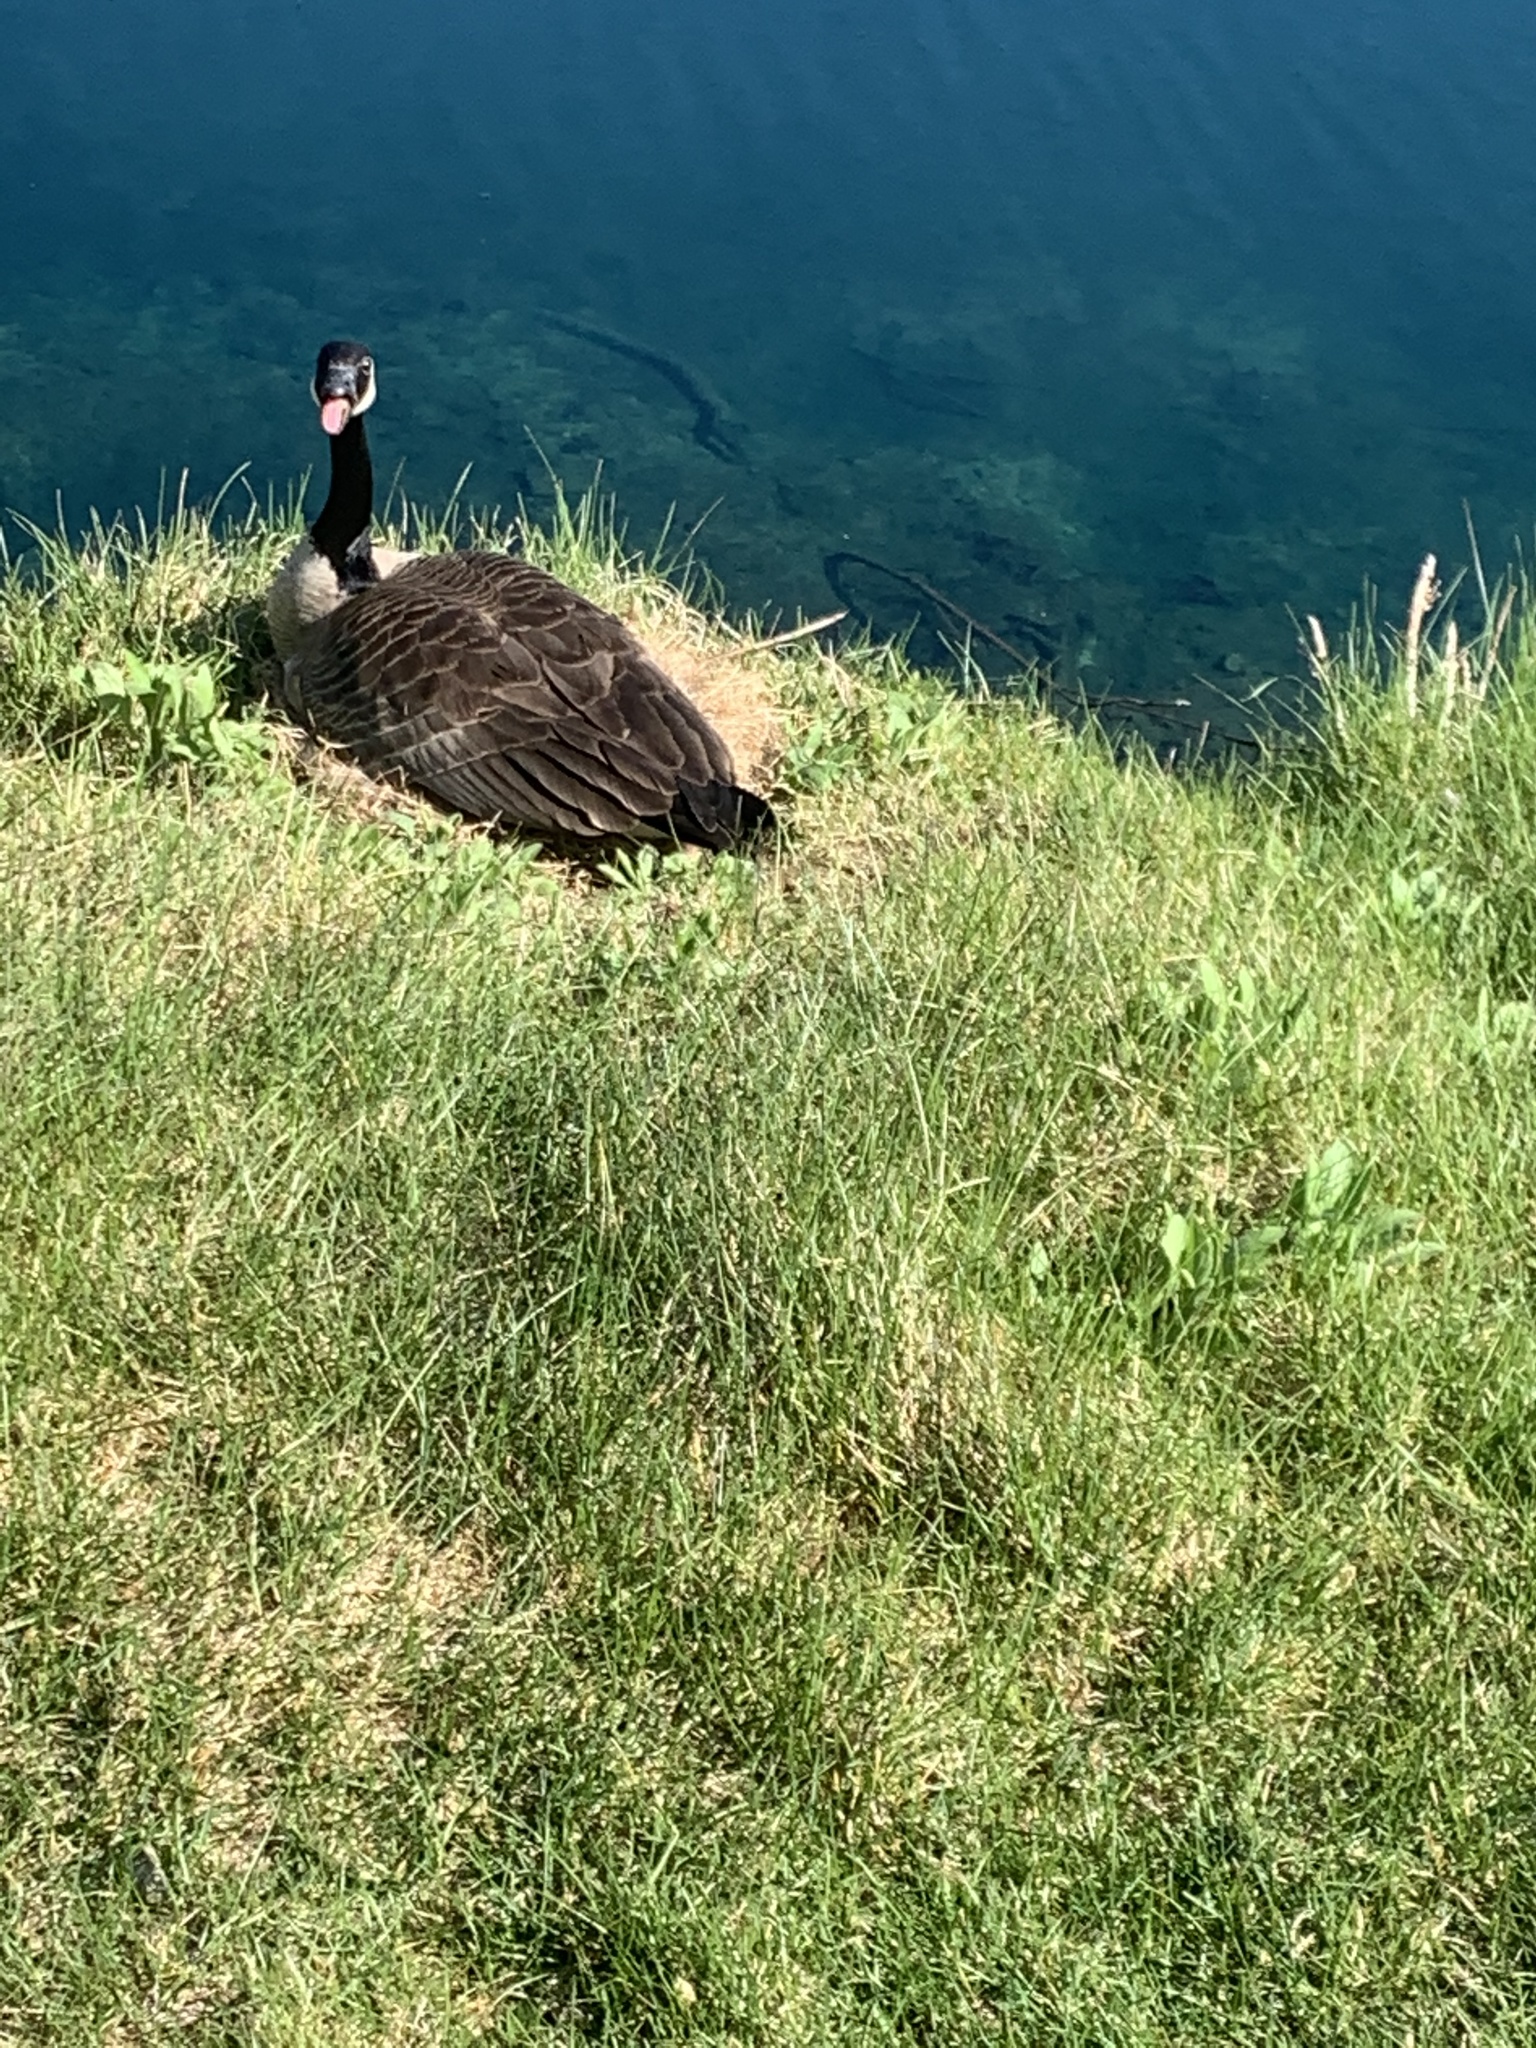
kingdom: Animalia
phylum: Chordata
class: Aves
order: Anseriformes
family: Anatidae
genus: Branta
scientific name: Branta canadensis
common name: Canada goose
